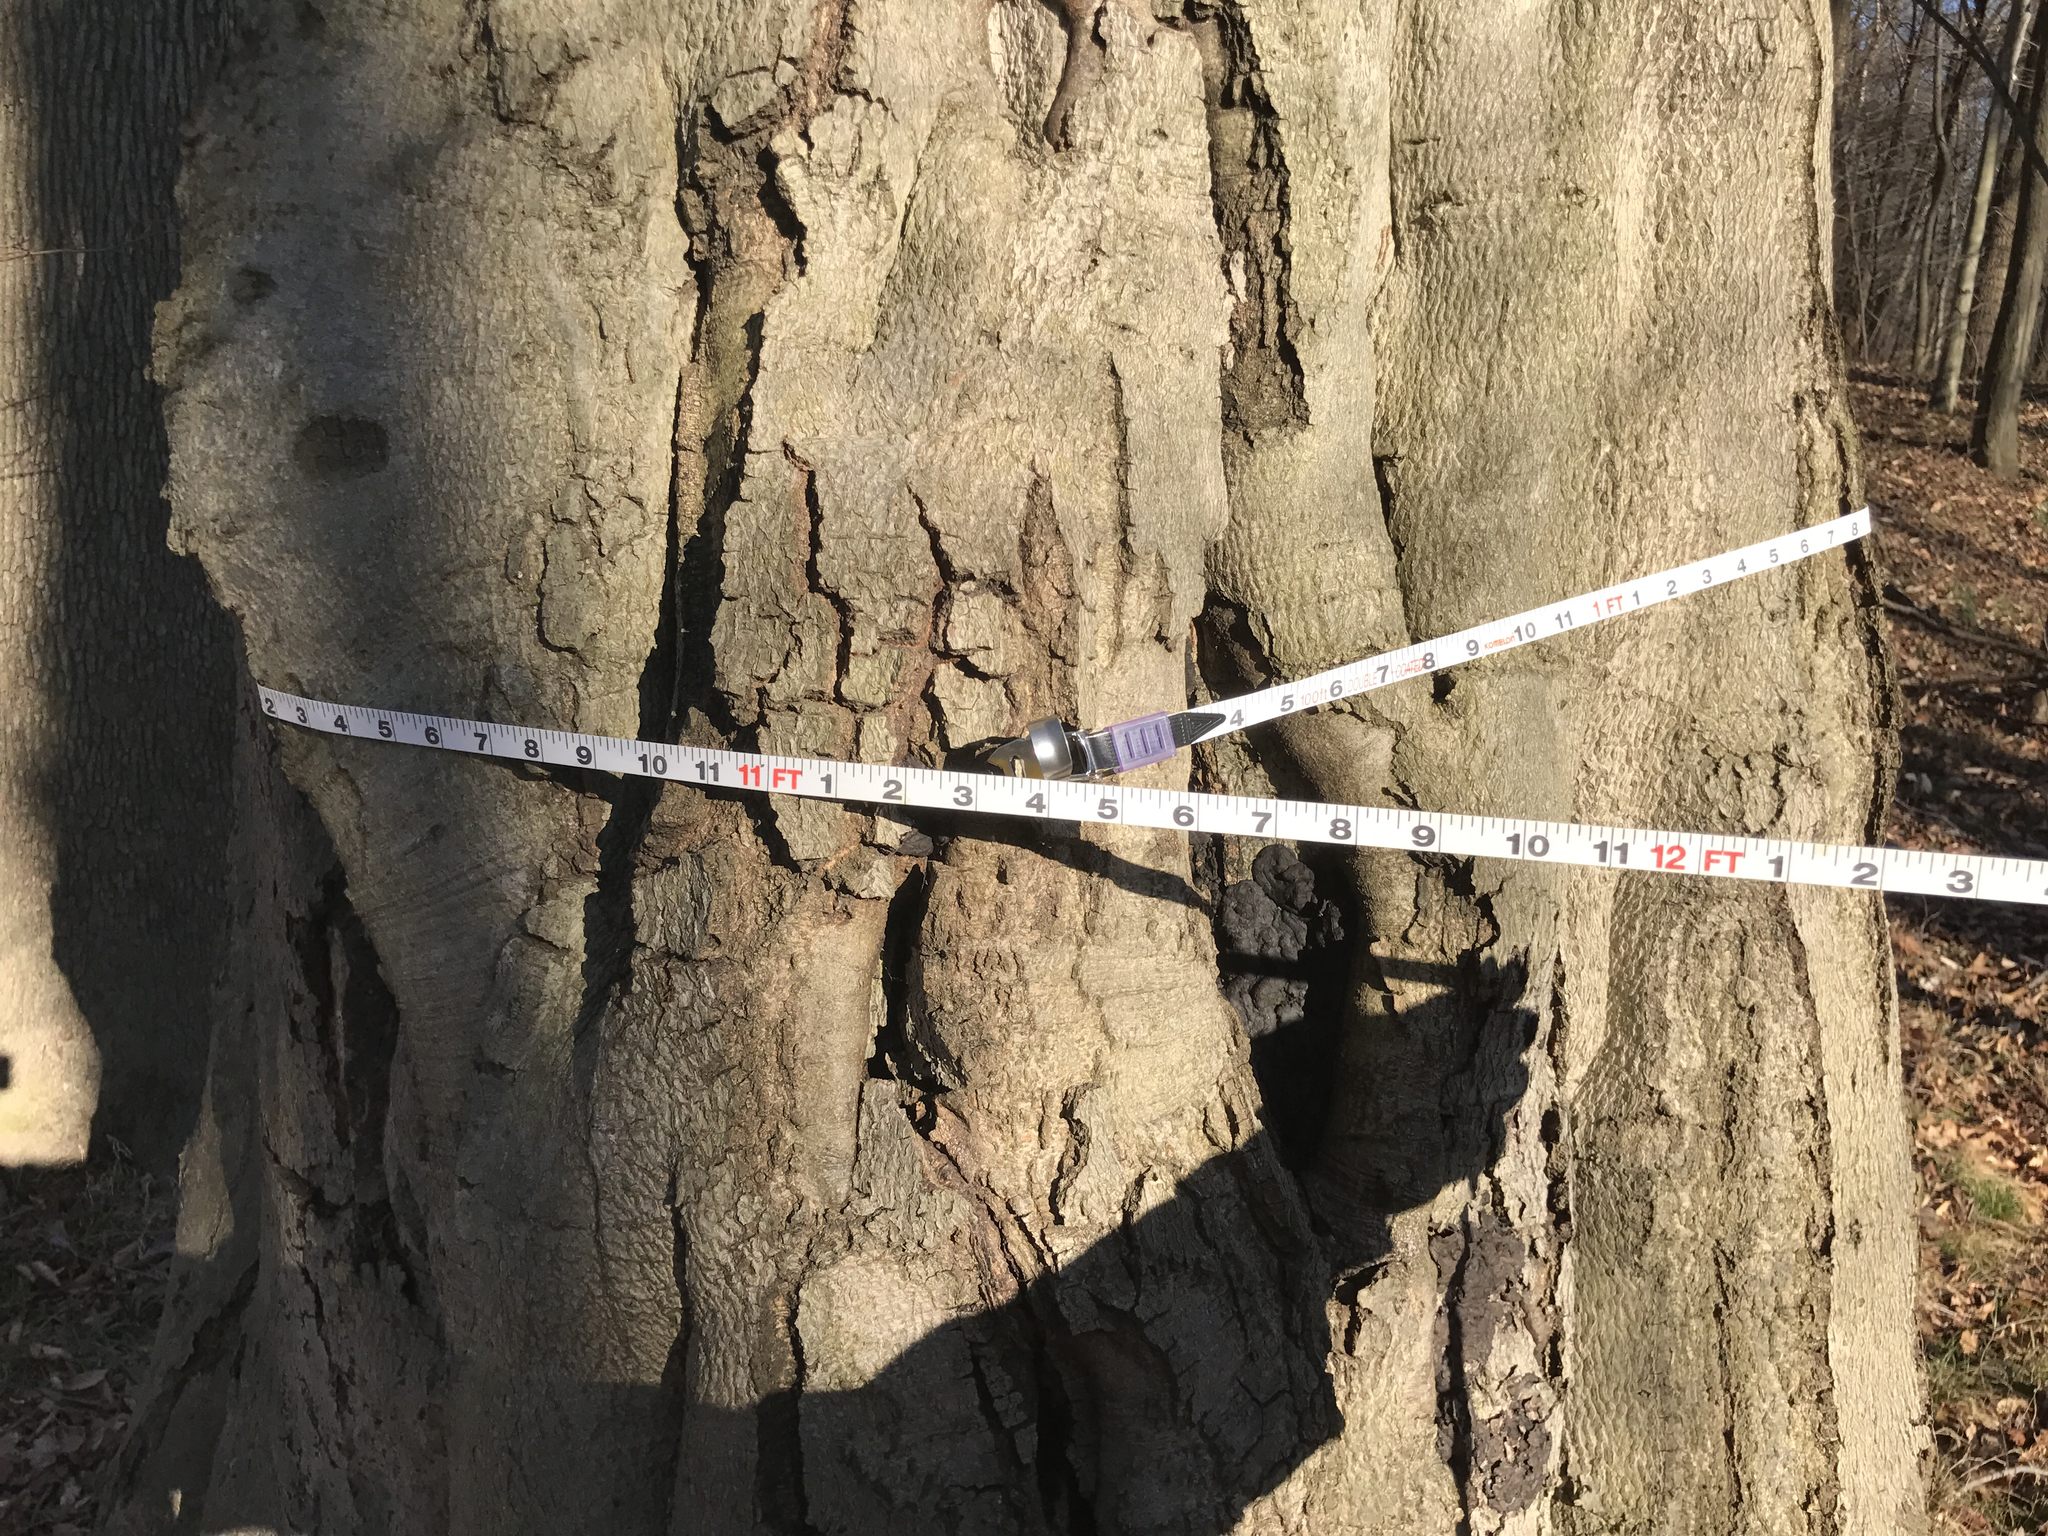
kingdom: Plantae
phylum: Tracheophyta
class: Magnoliopsida
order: Fagales
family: Fagaceae
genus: Fagus
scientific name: Fagus grandifolia
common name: American beech
